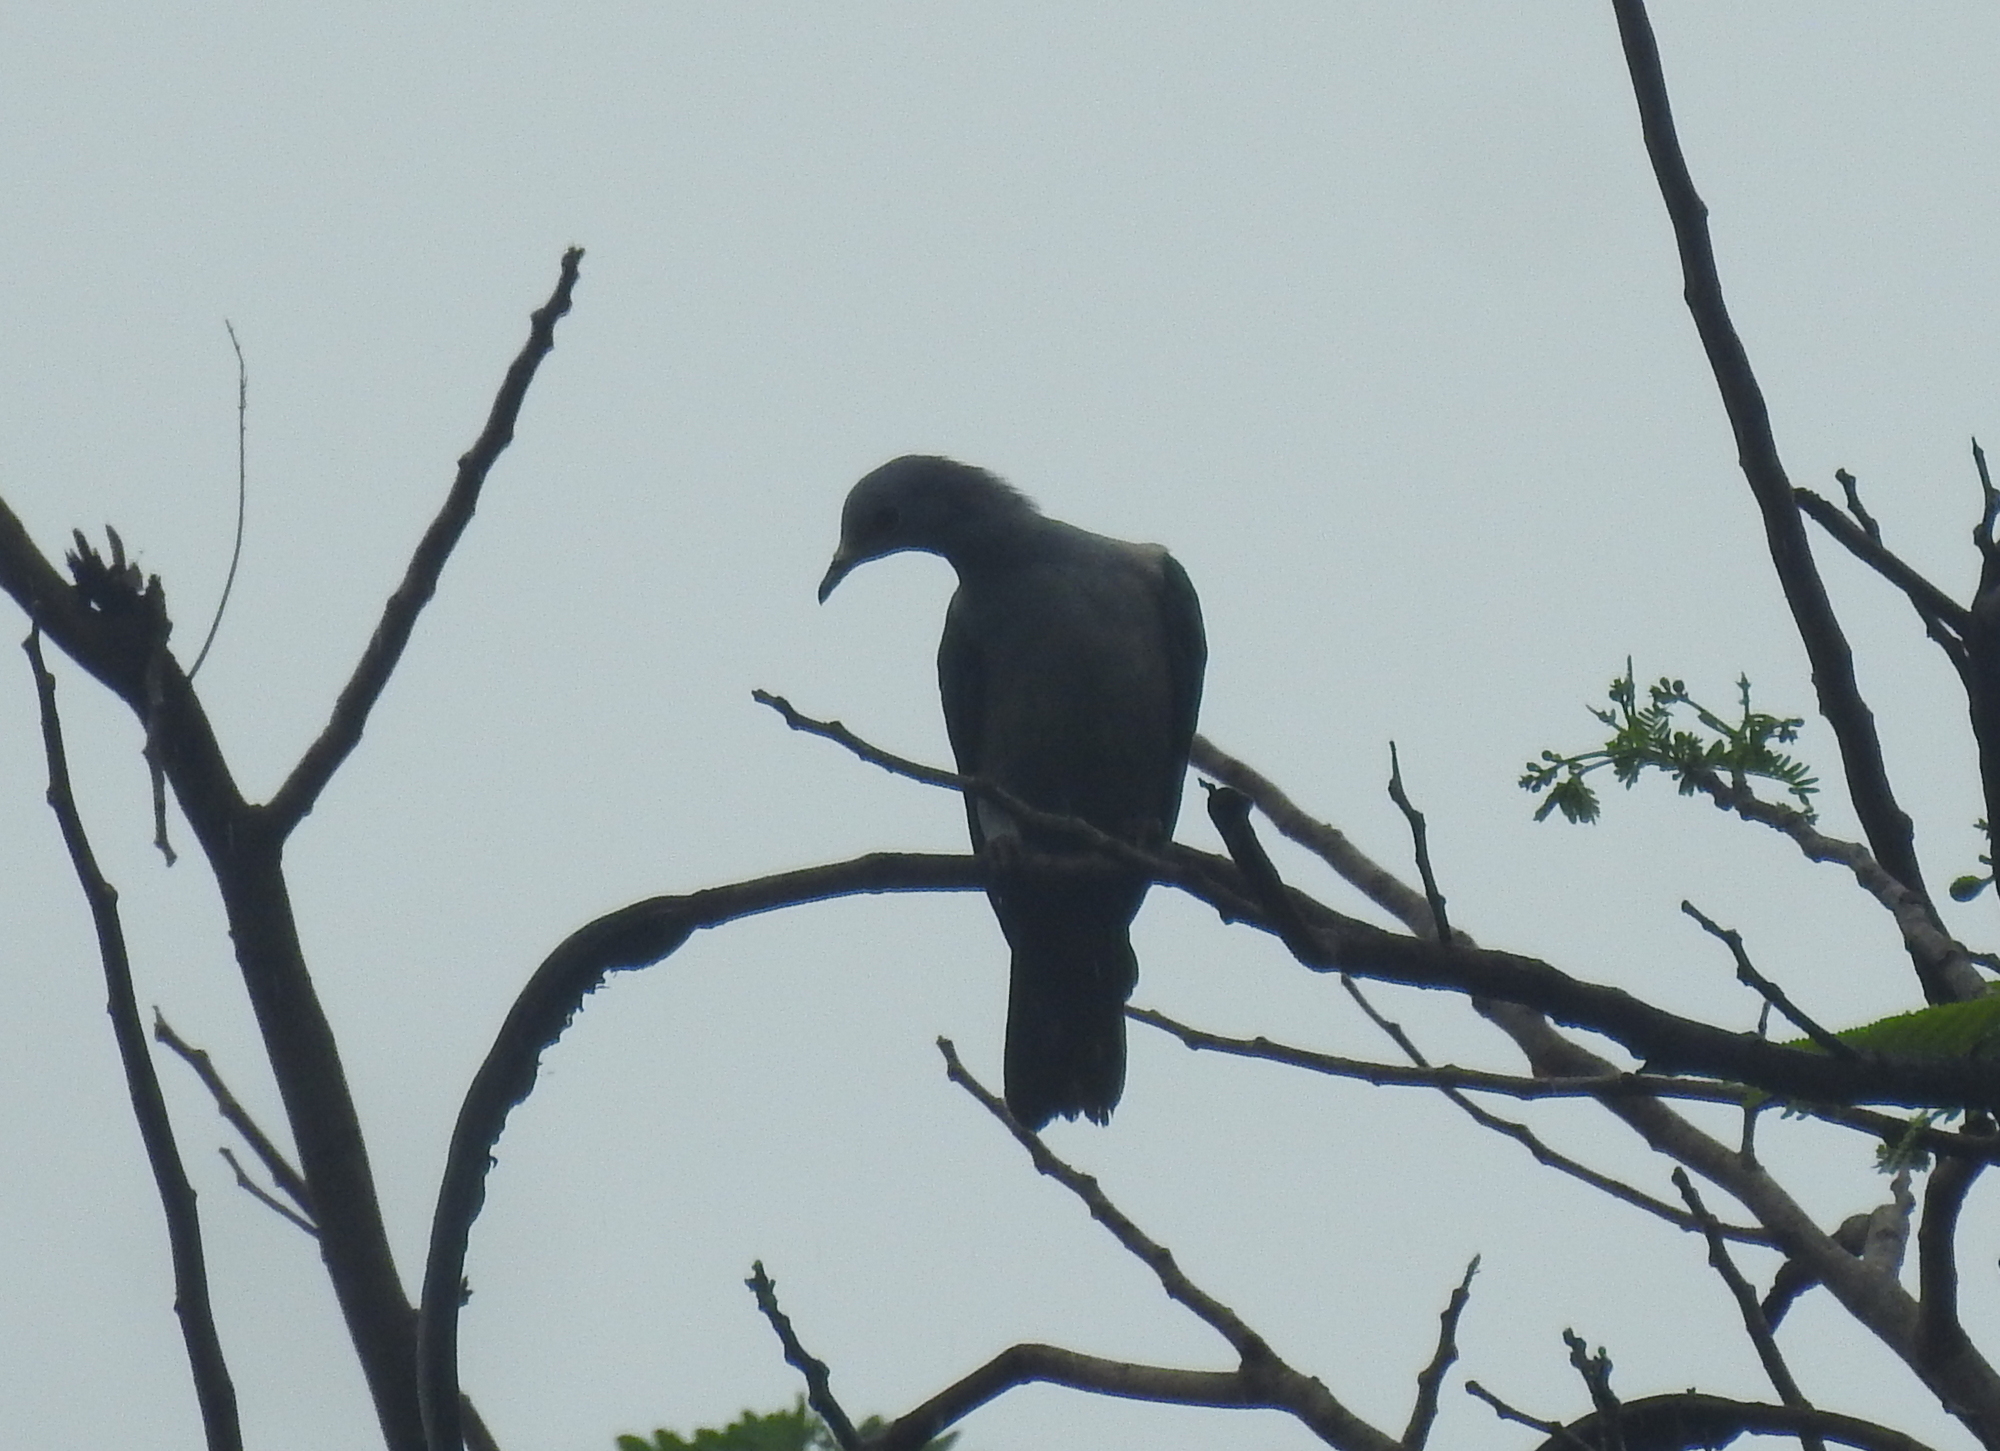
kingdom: Animalia
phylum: Chordata
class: Aves
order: Columbiformes
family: Columbidae
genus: Ducula
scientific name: Ducula aenea
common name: Green imperial pigeon
